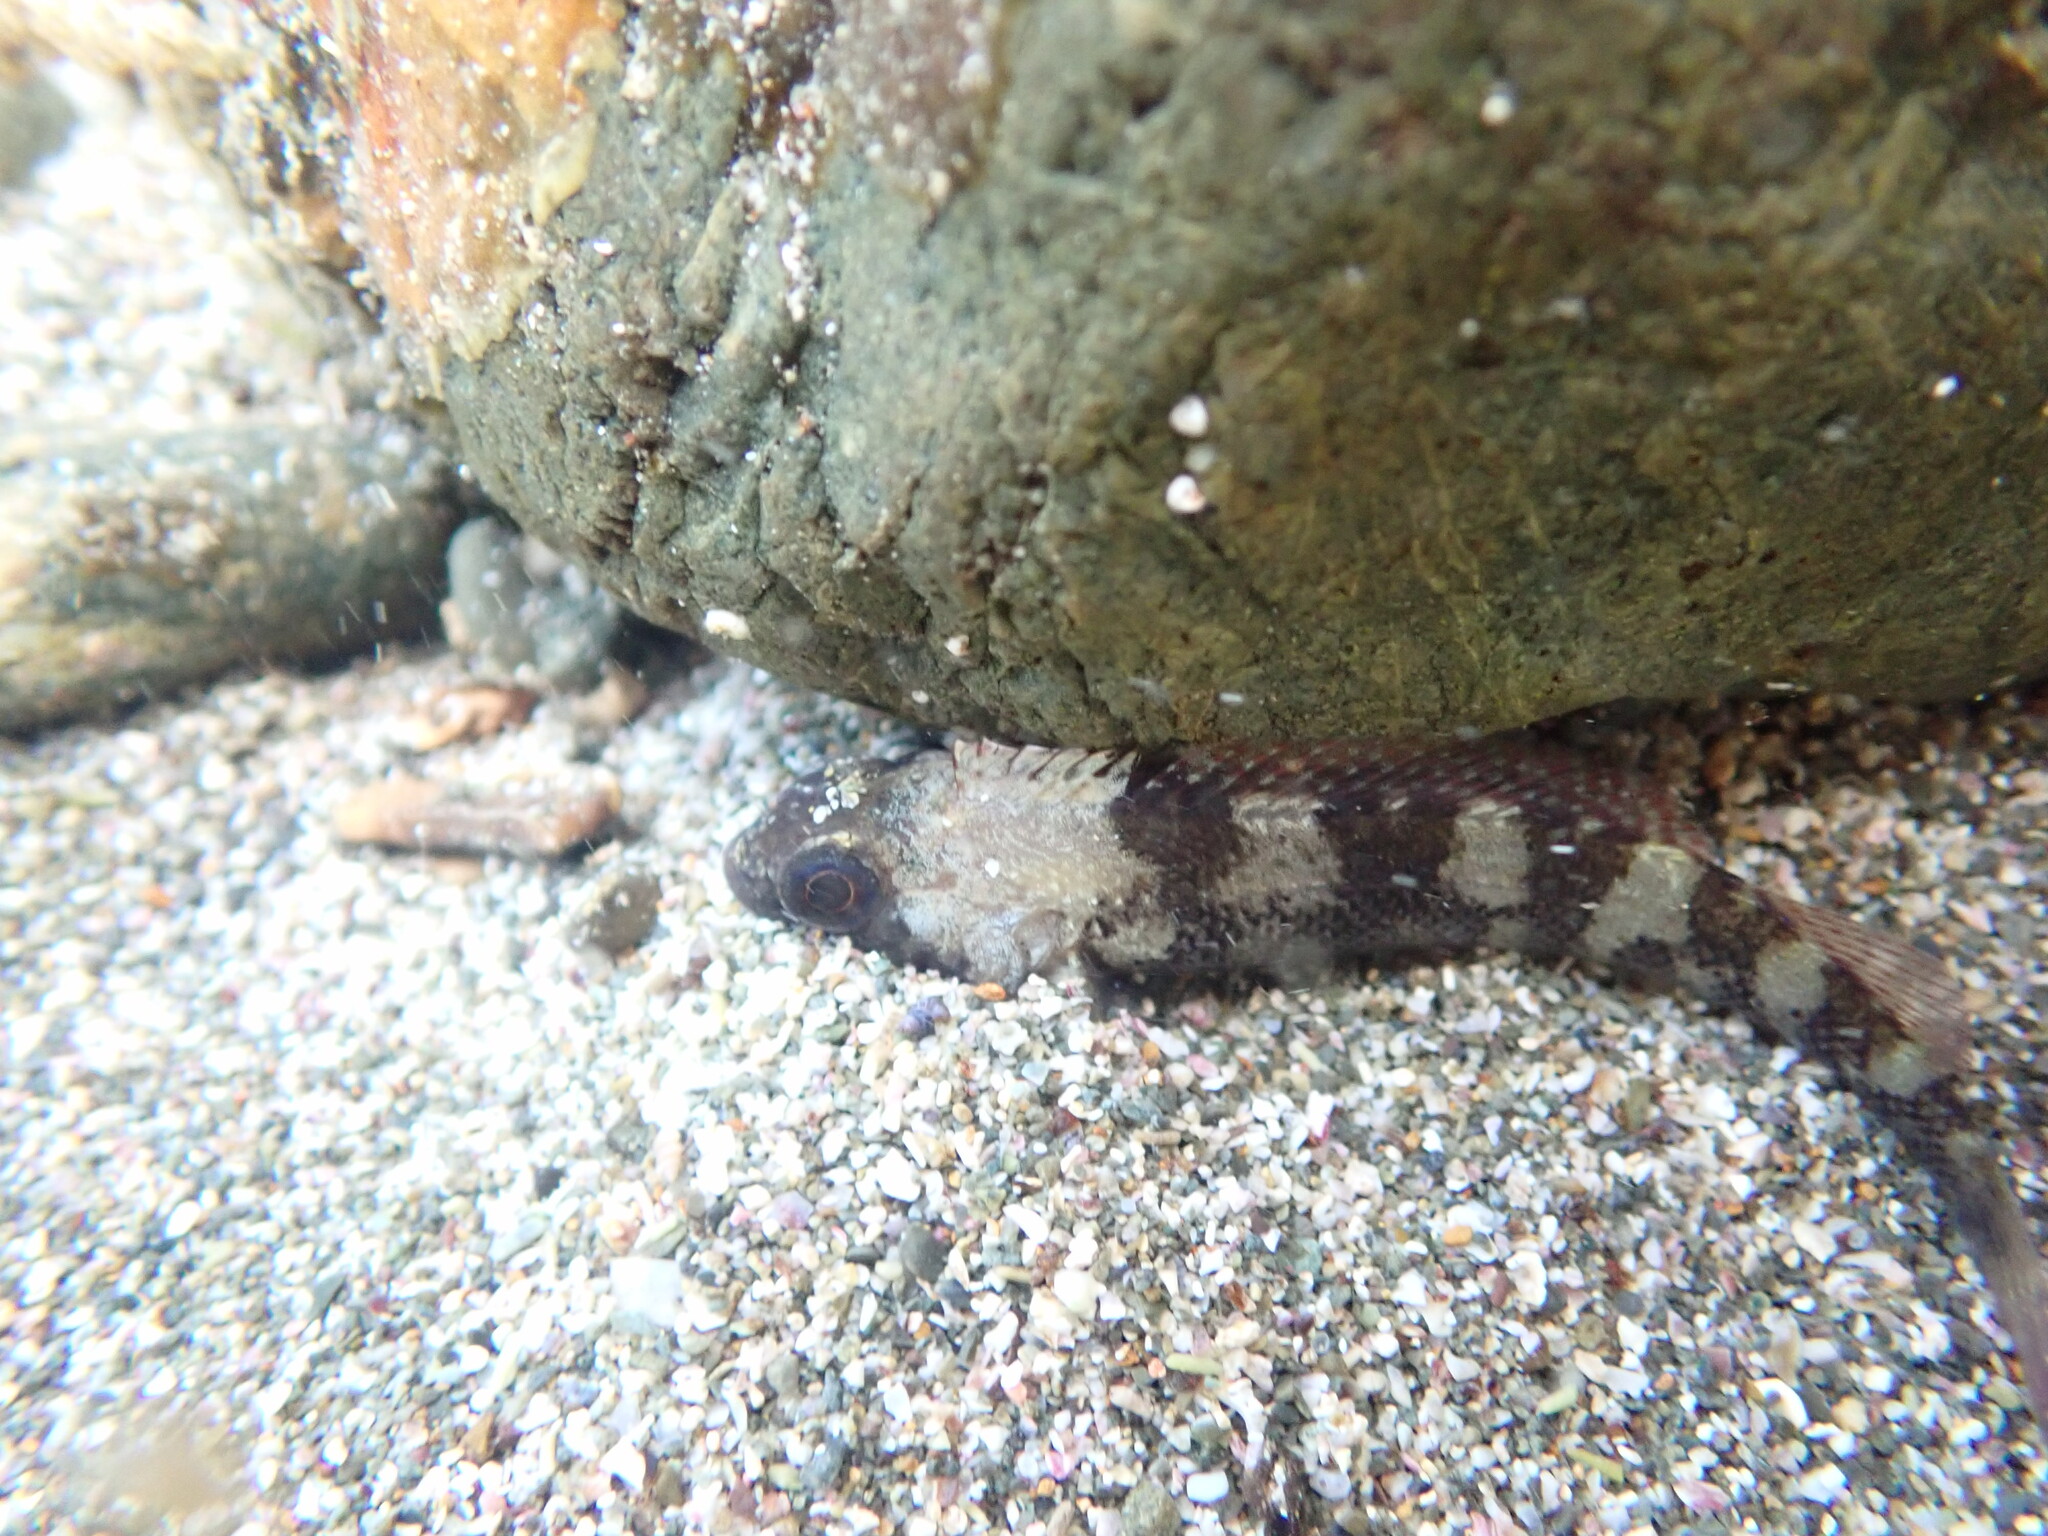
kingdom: Animalia
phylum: Chordata
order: Perciformes
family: Tripterygiidae
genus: Forsterygion
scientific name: Forsterygion lapillum
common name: Common triplefin
